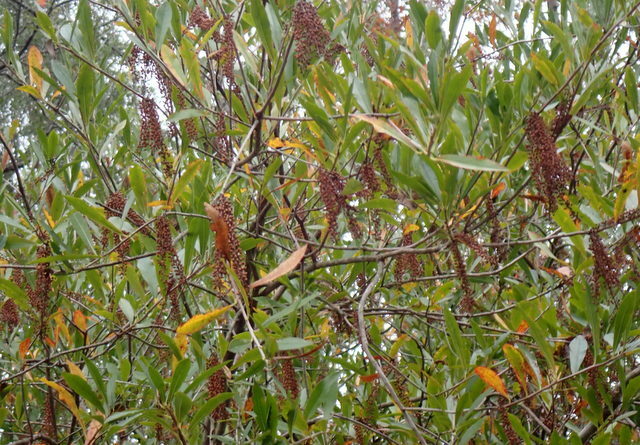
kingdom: Plantae
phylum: Tracheophyta
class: Magnoliopsida
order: Ericales
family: Cyrillaceae
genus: Cyrilla
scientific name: Cyrilla racemiflora
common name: Black titi
